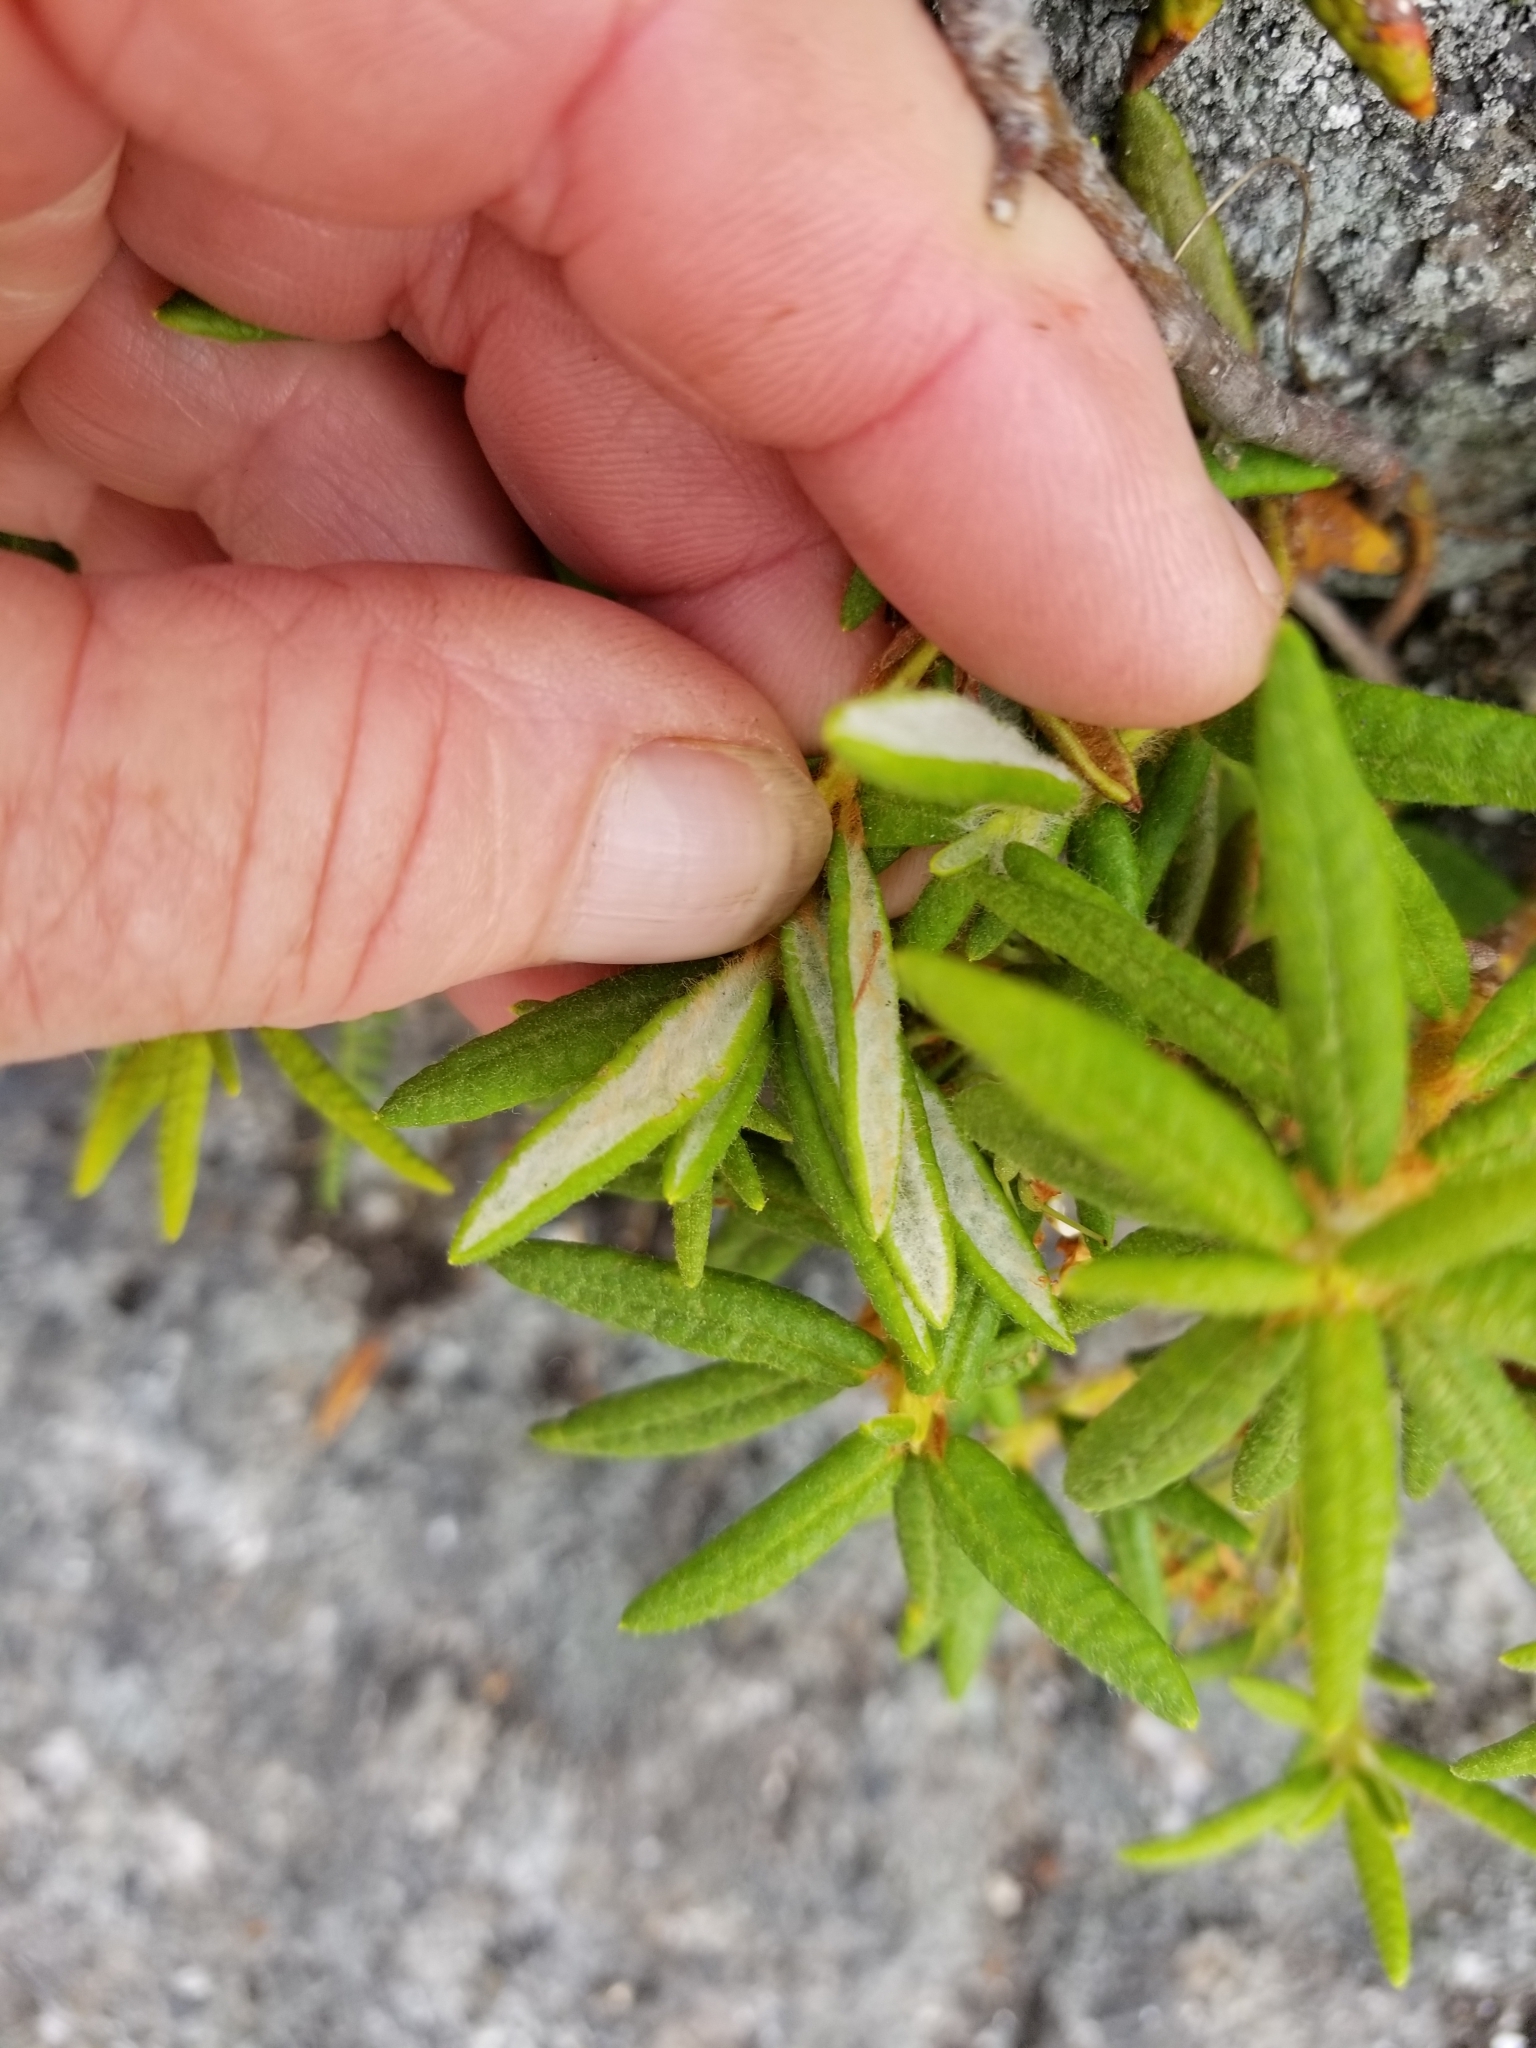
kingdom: Plantae
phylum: Tracheophyta
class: Magnoliopsida
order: Ericales
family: Ericaceae
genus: Rhododendron
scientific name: Rhododendron groenlandicum
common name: Bog labrador tea
